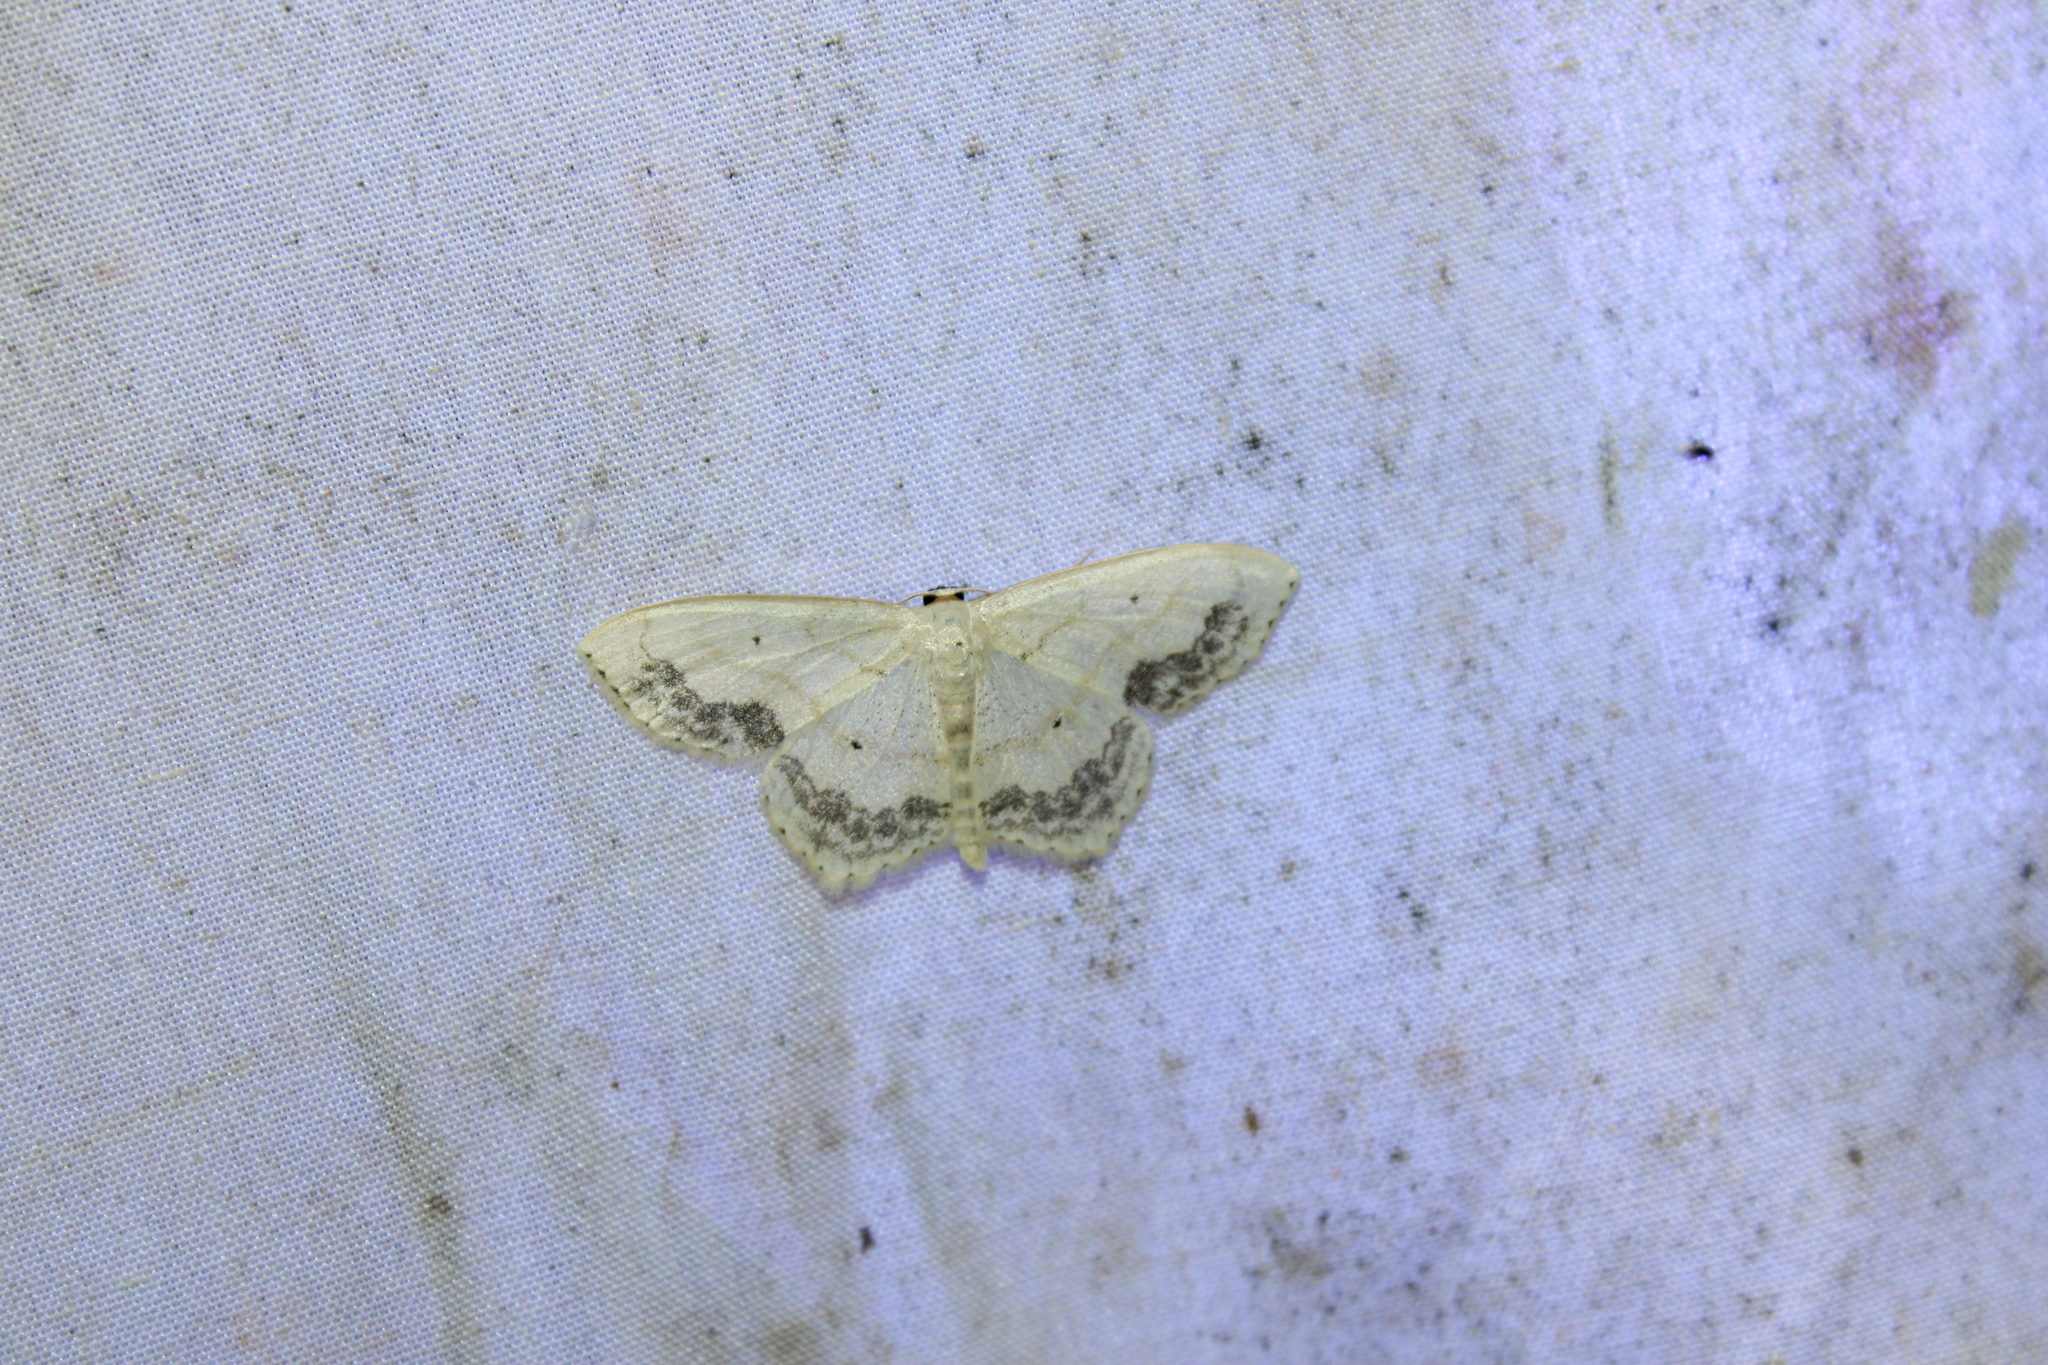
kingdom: Animalia
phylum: Arthropoda
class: Insecta
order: Lepidoptera
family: Geometridae
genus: Scopula
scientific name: Scopula limboundata
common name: Large lace border
